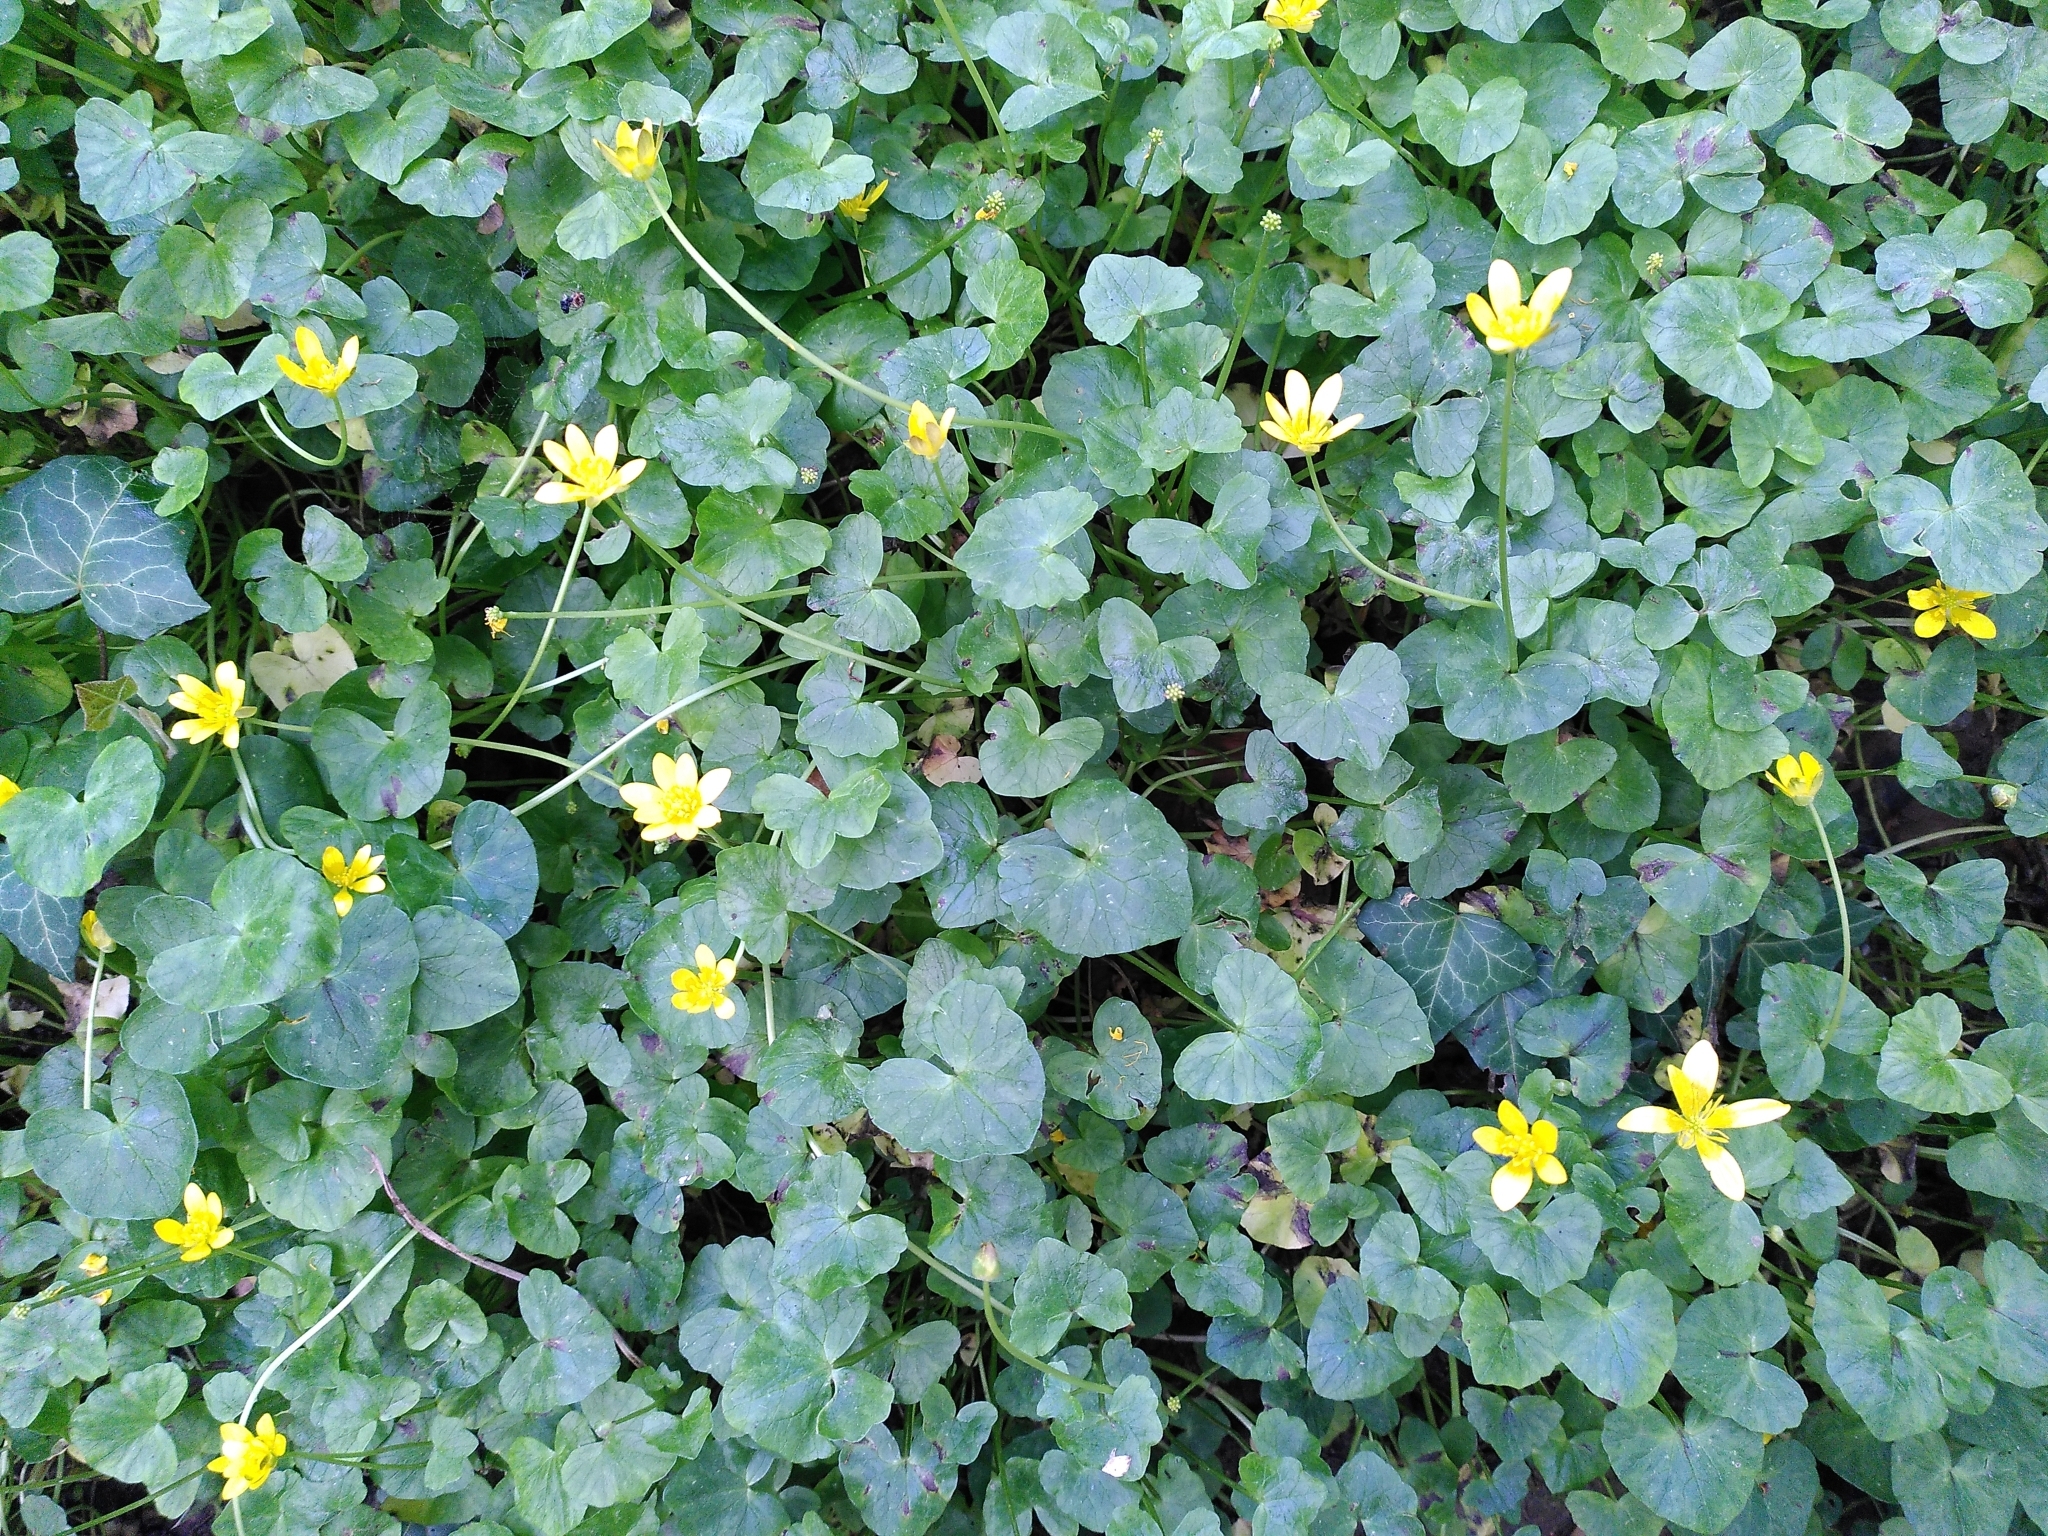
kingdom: Plantae
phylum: Tracheophyta
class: Magnoliopsida
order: Ranunculales
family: Ranunculaceae
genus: Ficaria
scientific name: Ficaria verna
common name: Lesser celandine
